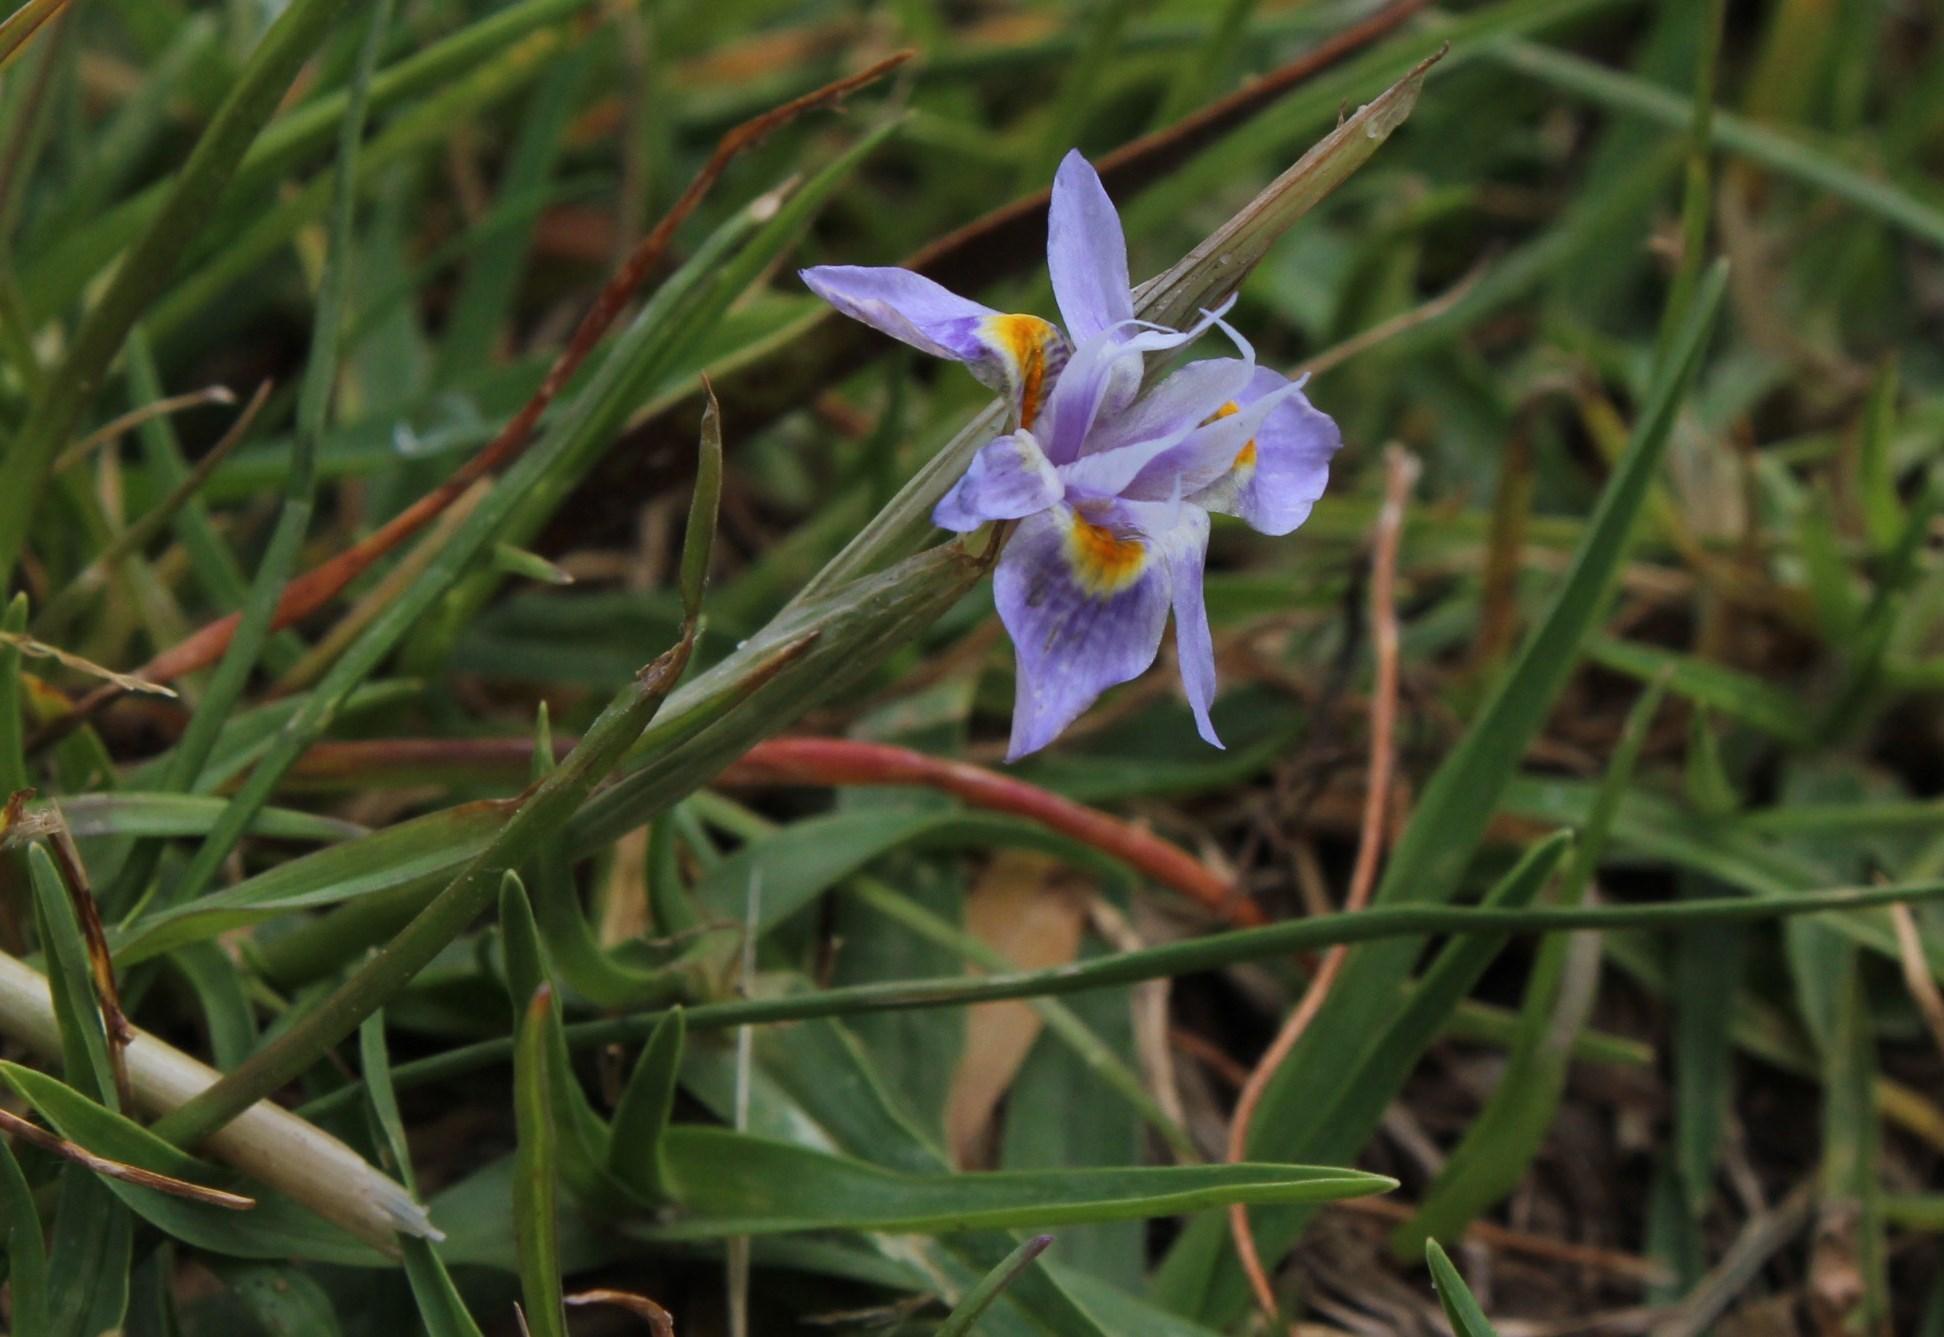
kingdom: Plantae
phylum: Tracheophyta
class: Liliopsida
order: Asparagales
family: Iridaceae
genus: Moraea
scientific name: Moraea setifolia
